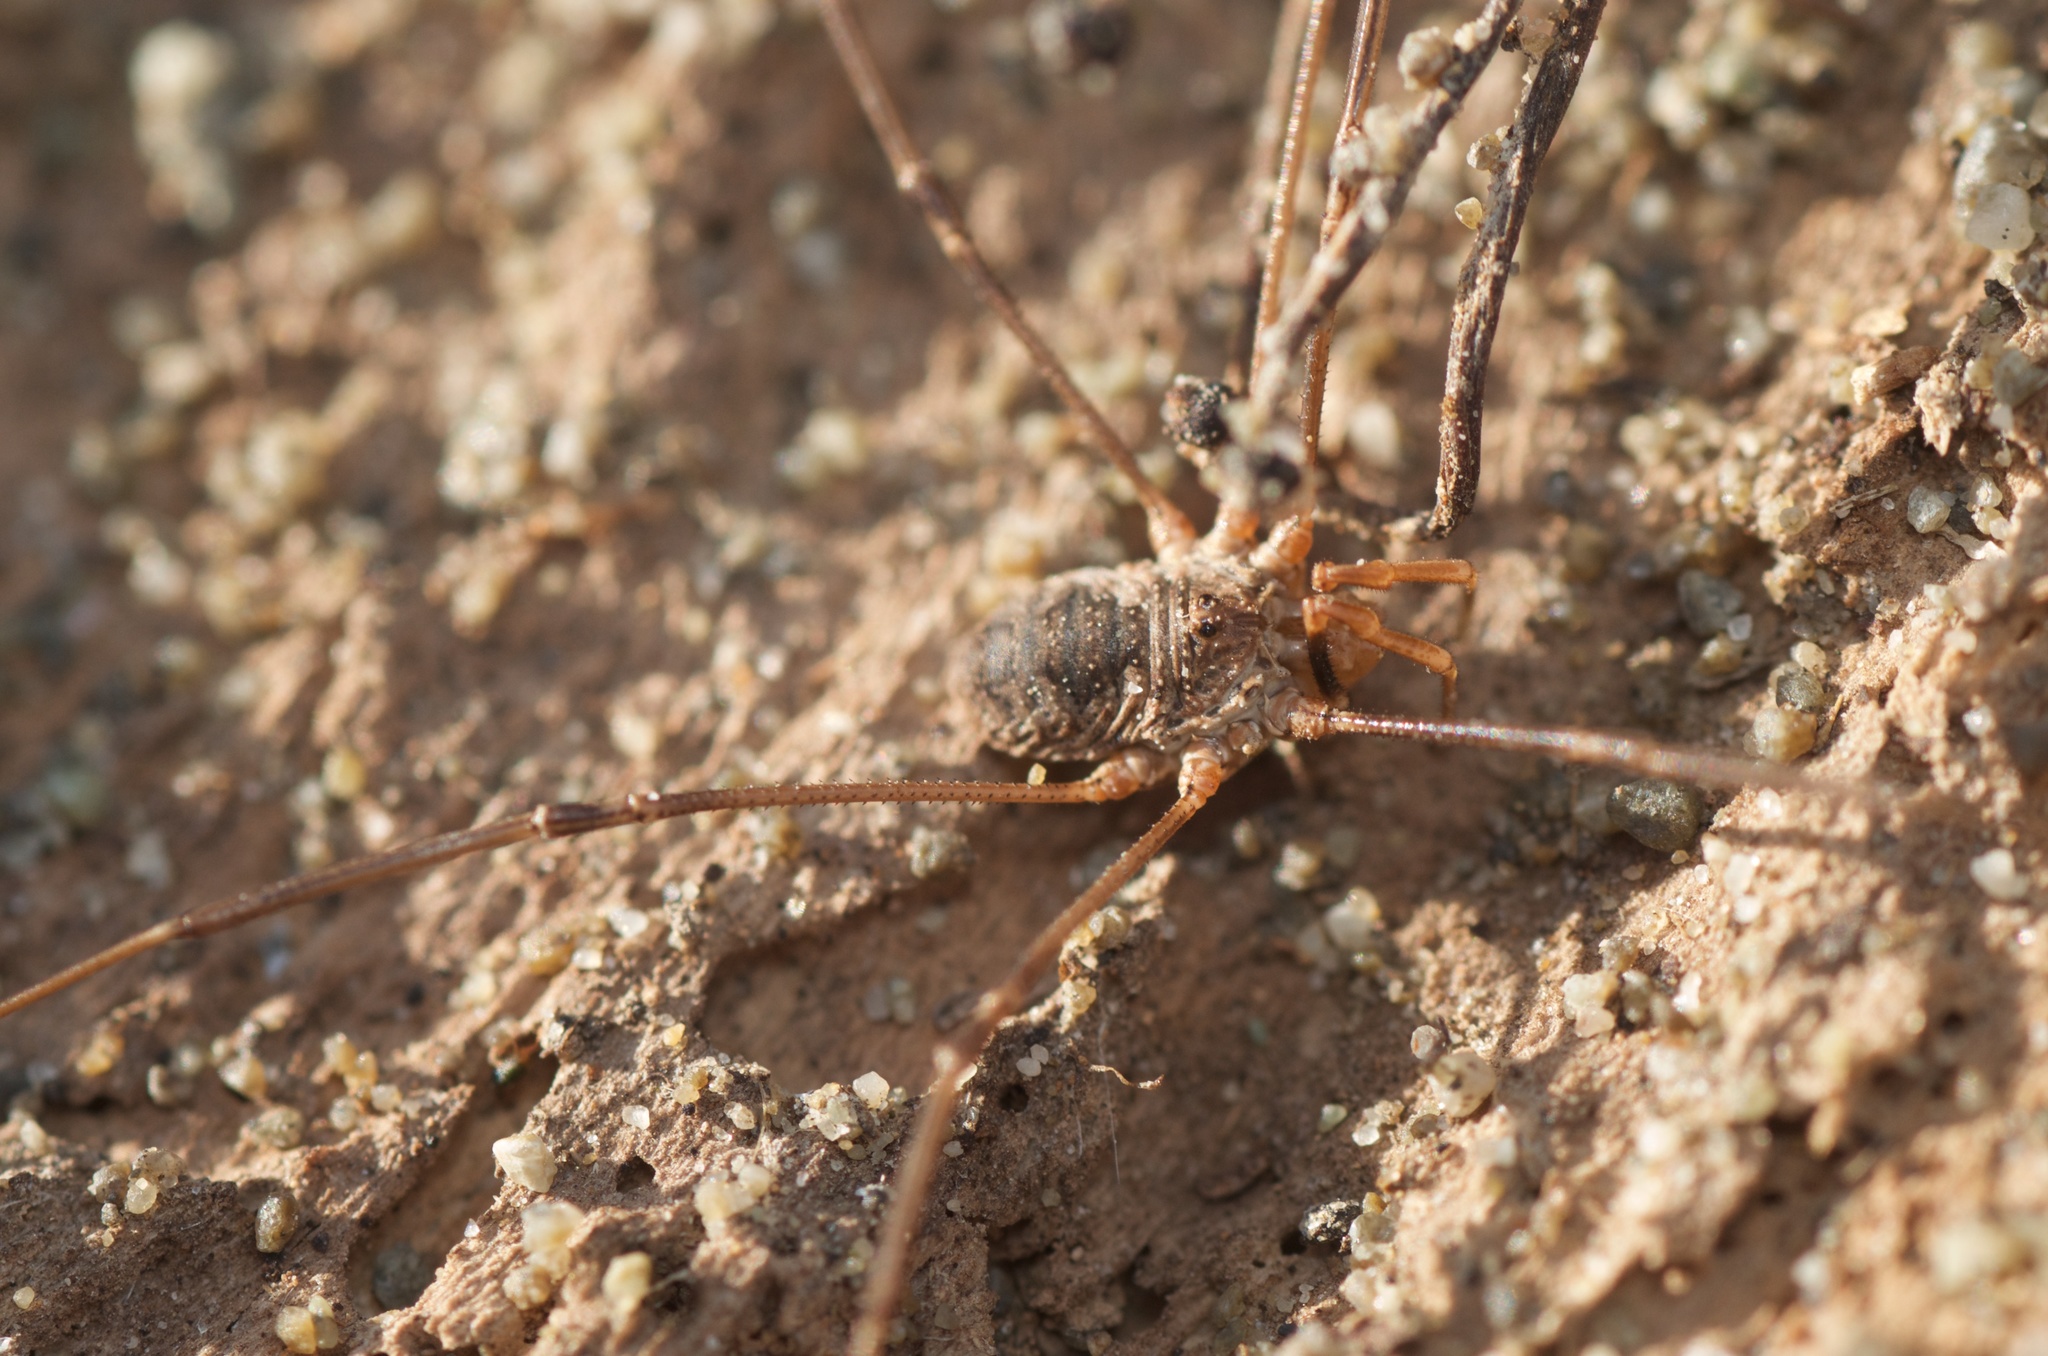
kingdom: Animalia
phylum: Arthropoda
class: Arachnida
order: Opiliones
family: Phalangiidae
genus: Phalangium
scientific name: Phalangium opilio
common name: Daddy longleg
